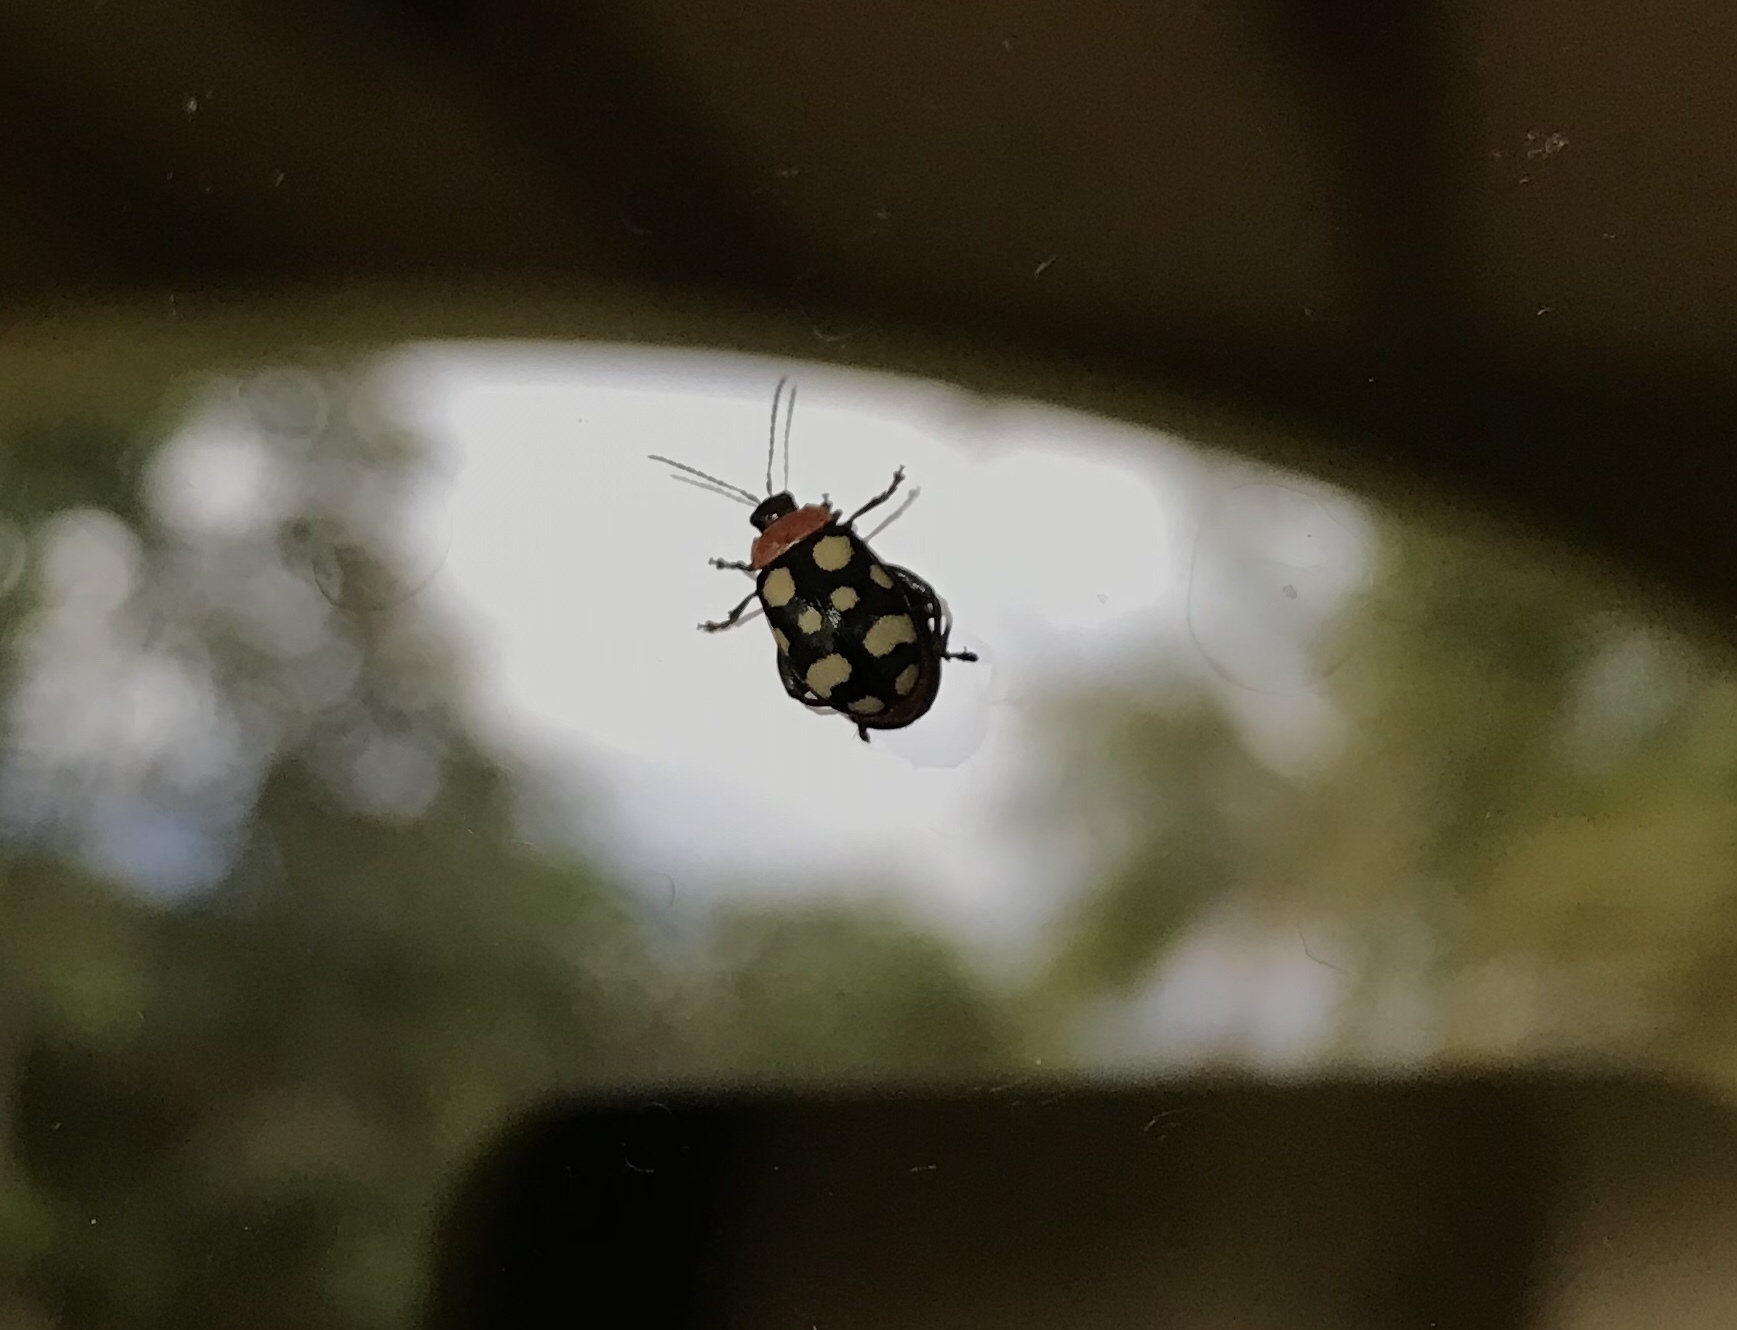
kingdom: Animalia
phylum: Arthropoda
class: Insecta
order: Coleoptera
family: Chrysomelidae
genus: Alagoasa
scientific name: Alagoasa trifasciata
